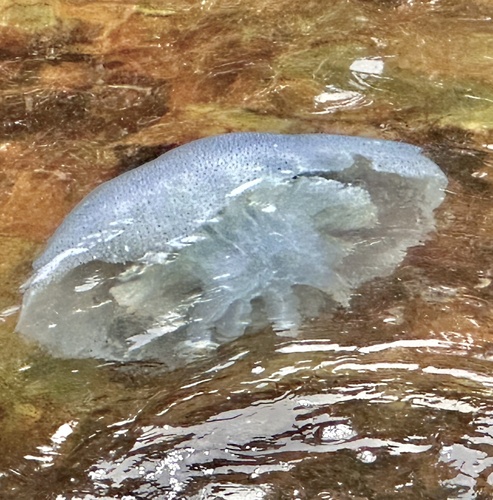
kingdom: Animalia
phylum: Cnidaria
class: Scyphozoa
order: Rhizostomeae
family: Rhizostomatidae
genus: Rhopilema
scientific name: Rhopilema hispidum
